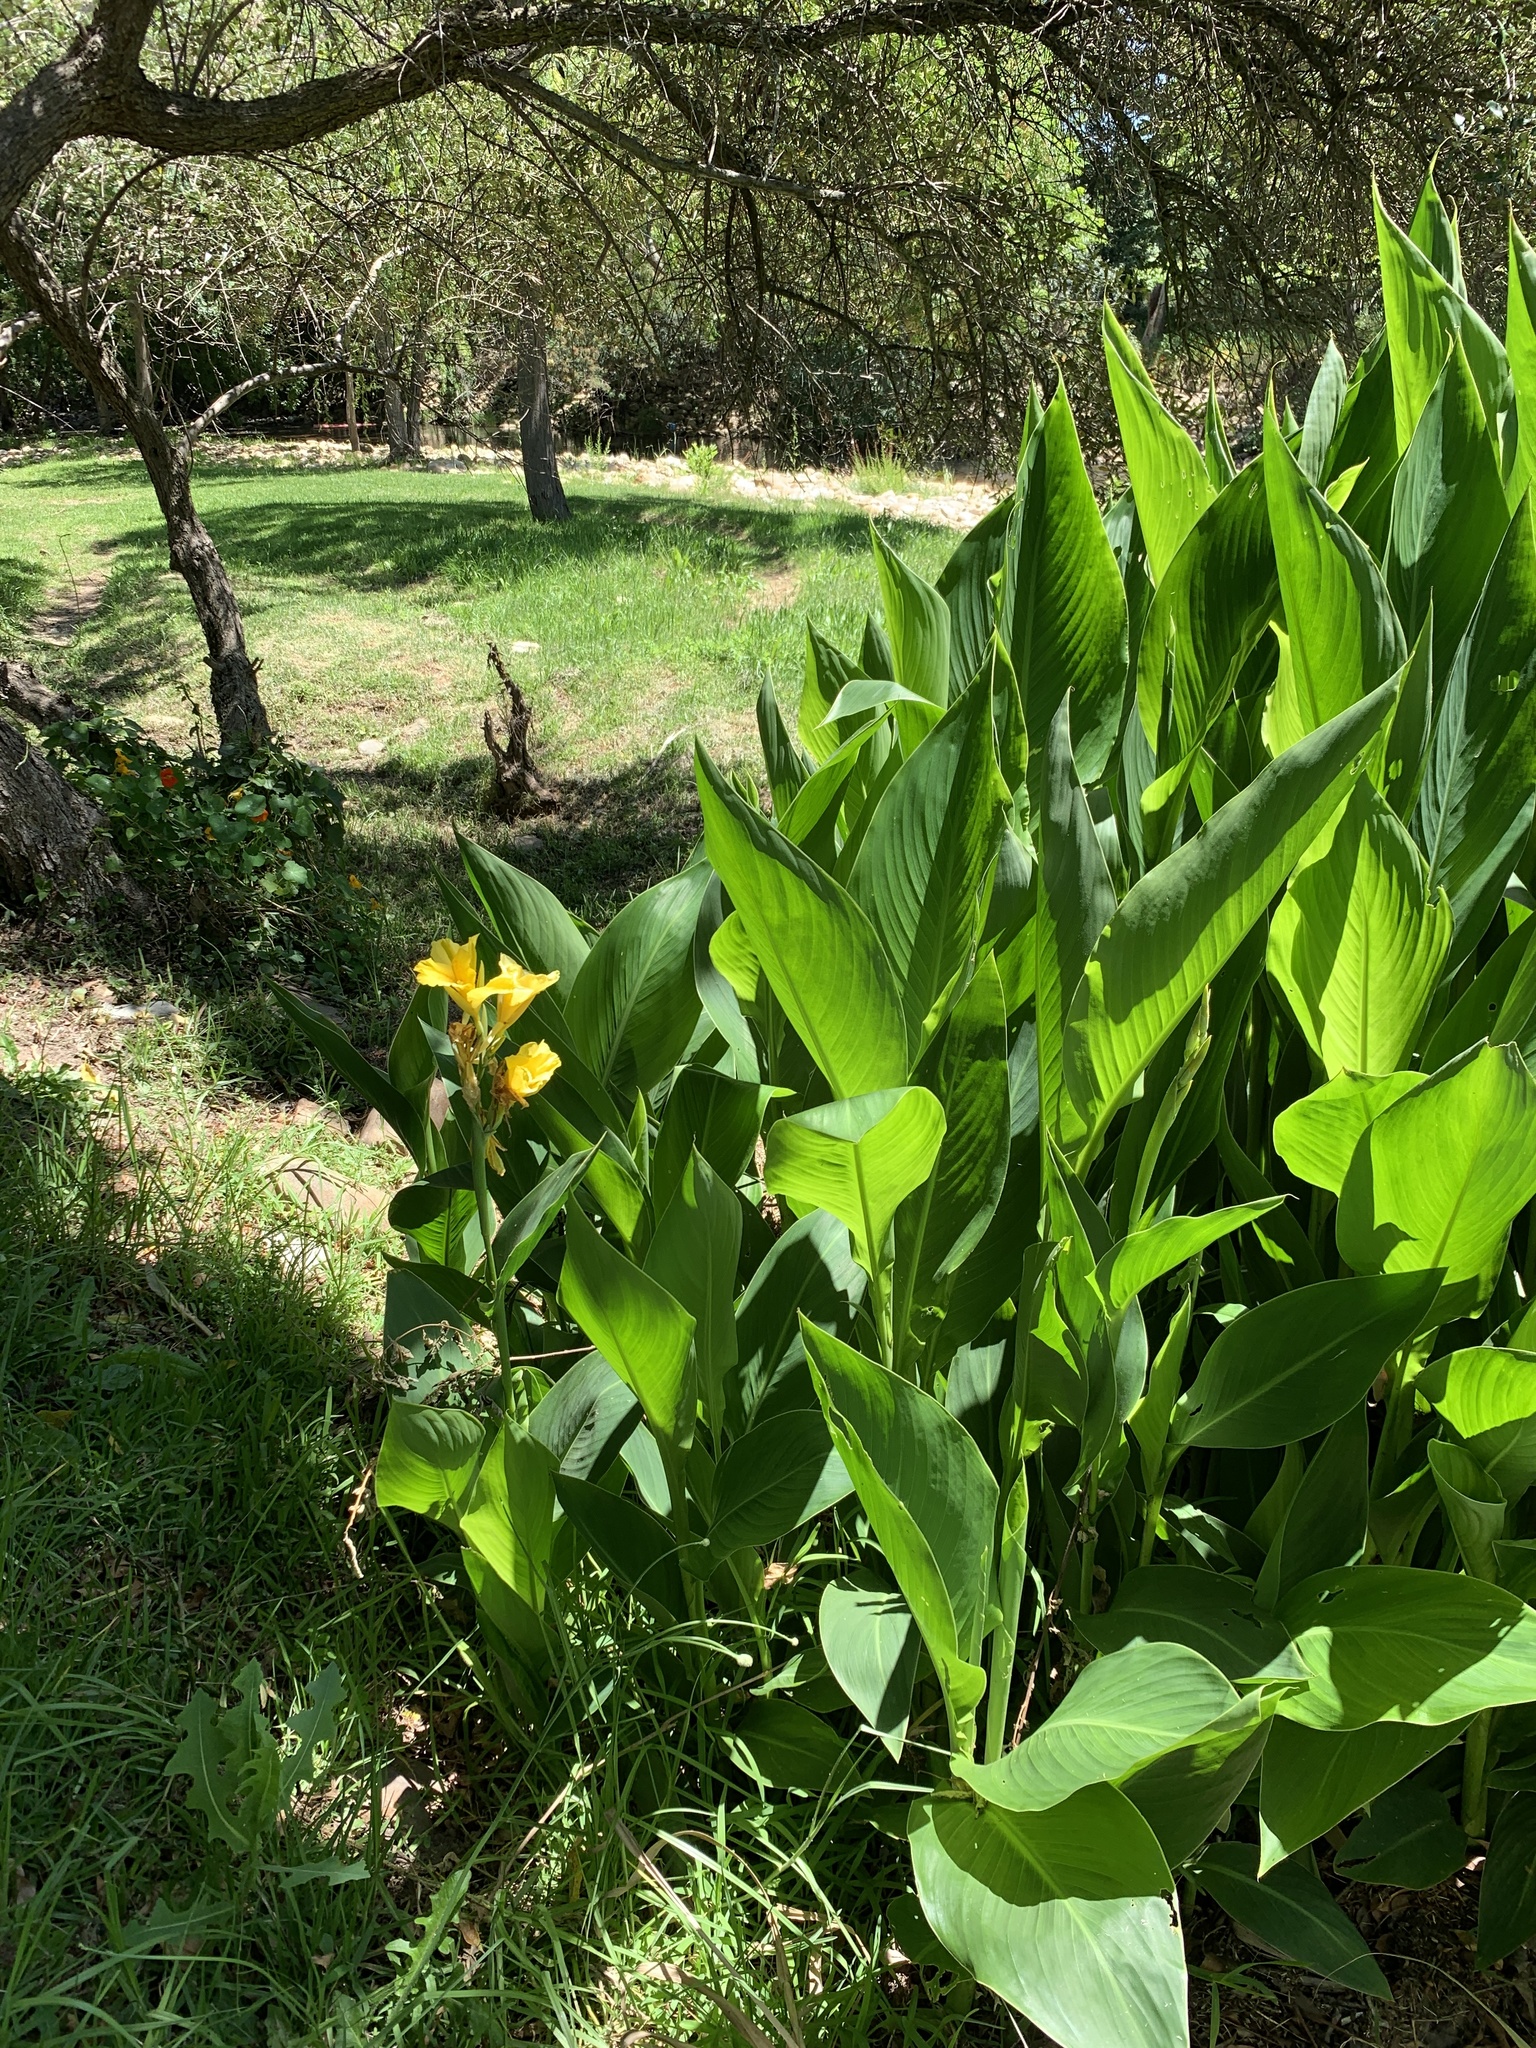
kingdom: Plantae
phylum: Tracheophyta
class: Liliopsida
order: Zingiberales
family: Cannaceae
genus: Canna
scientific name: Canna hybrida
